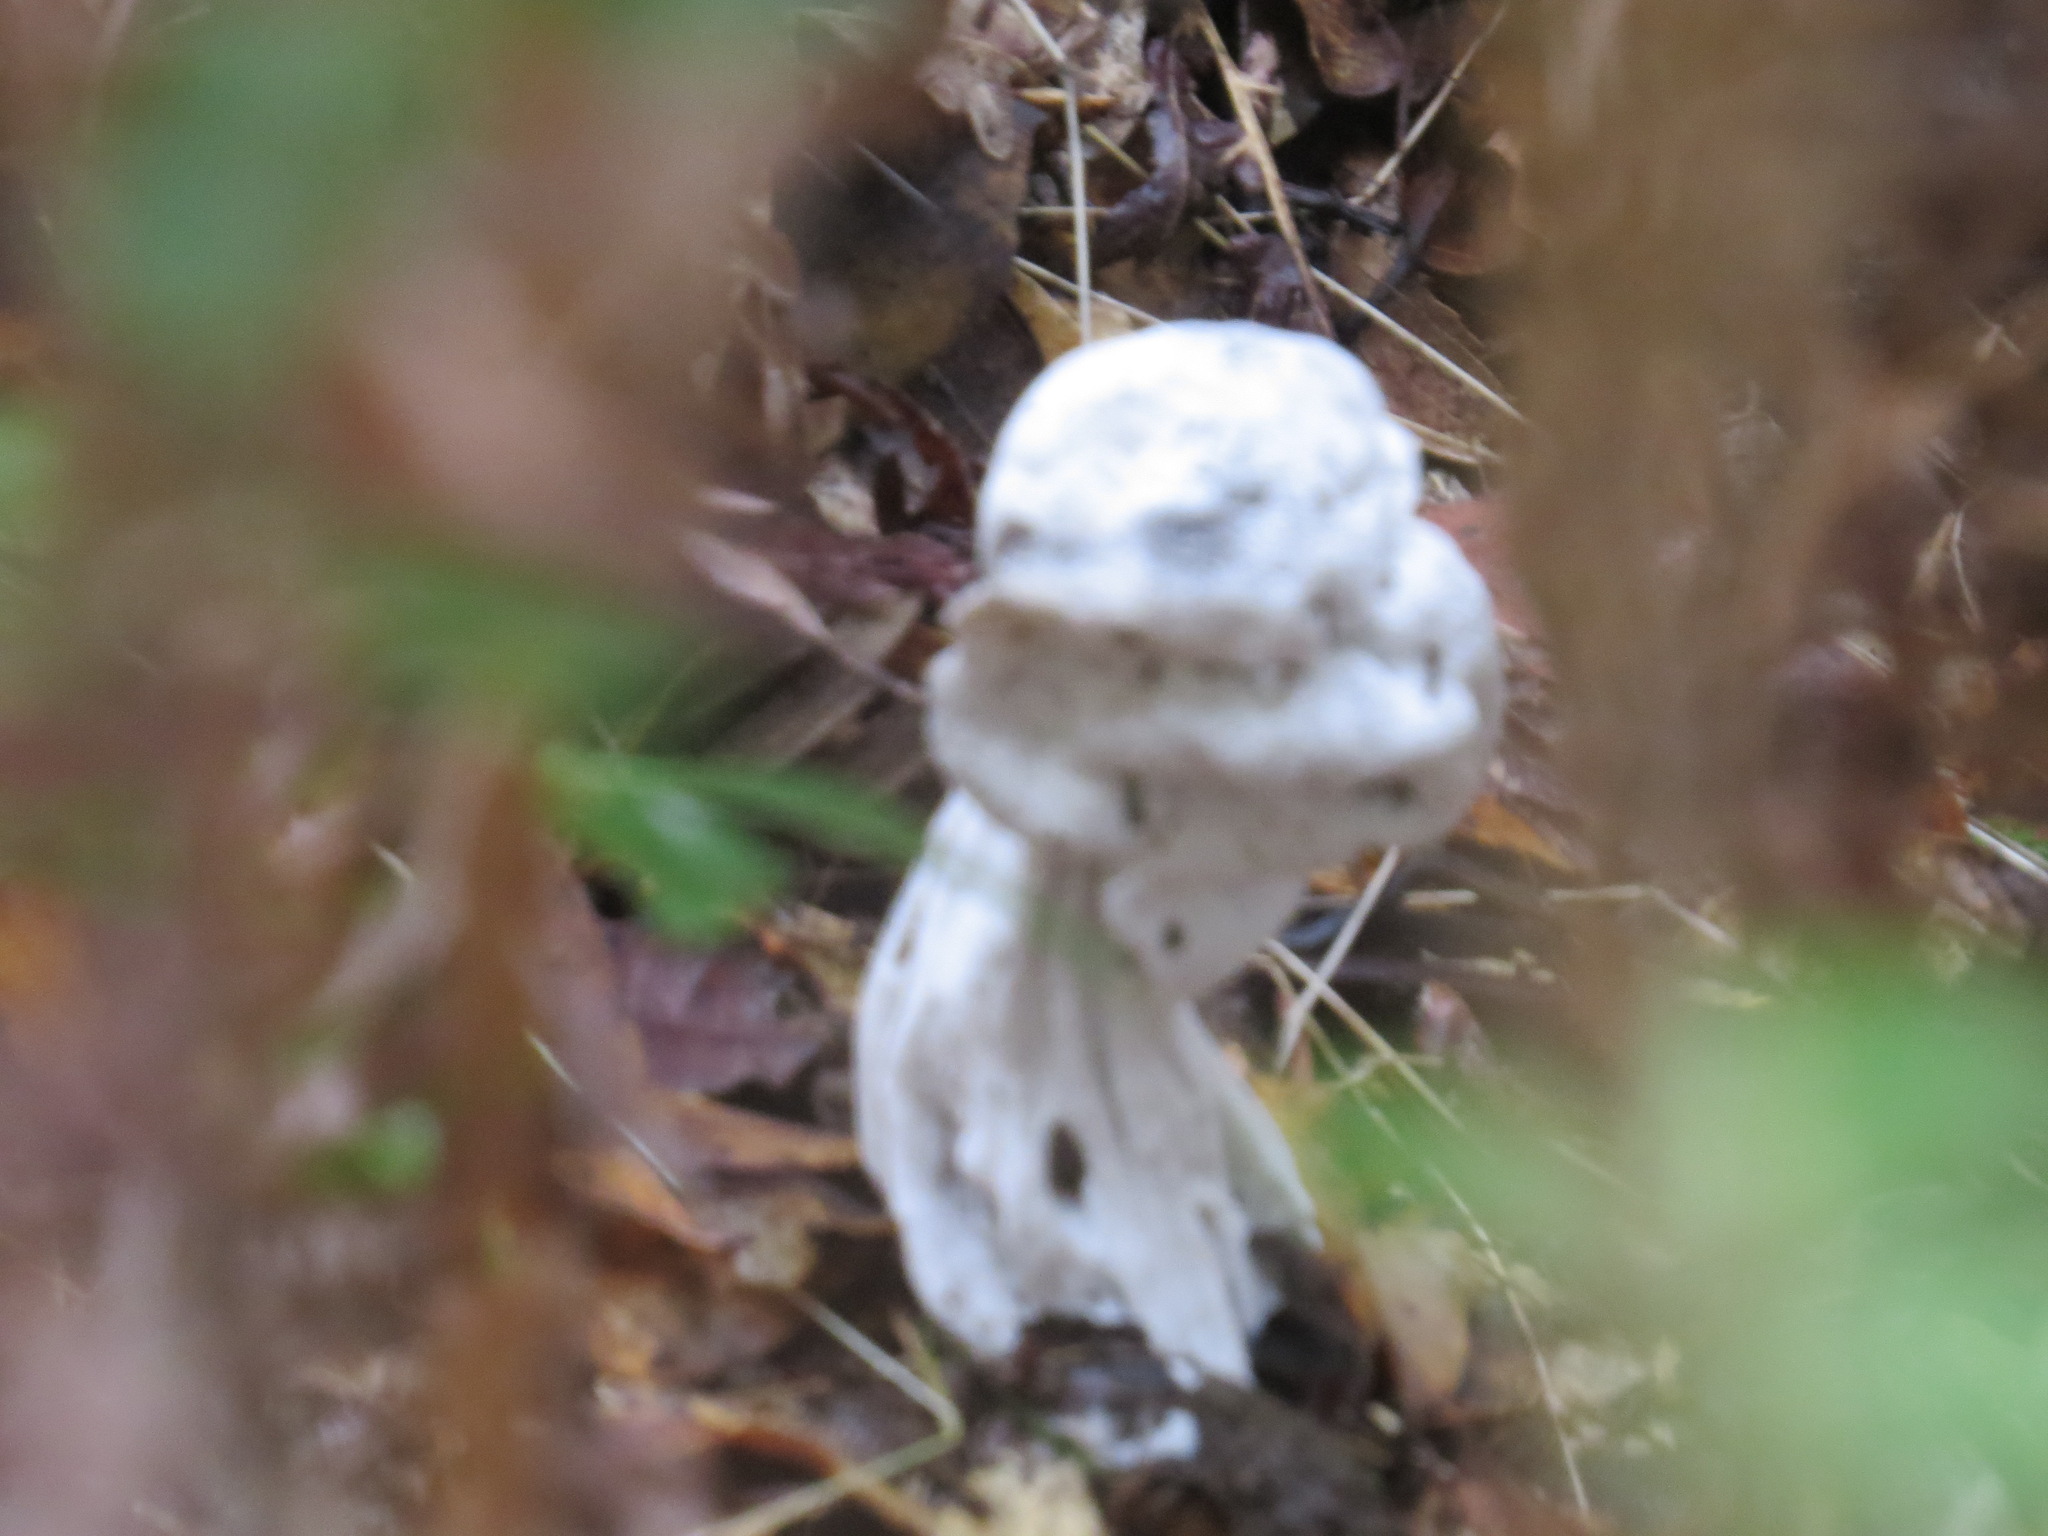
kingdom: Fungi
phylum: Ascomycota
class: Sordariomycetes
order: Hypocreales
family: Hypocreaceae
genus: Hypomyces
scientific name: Hypomyces cervinus
